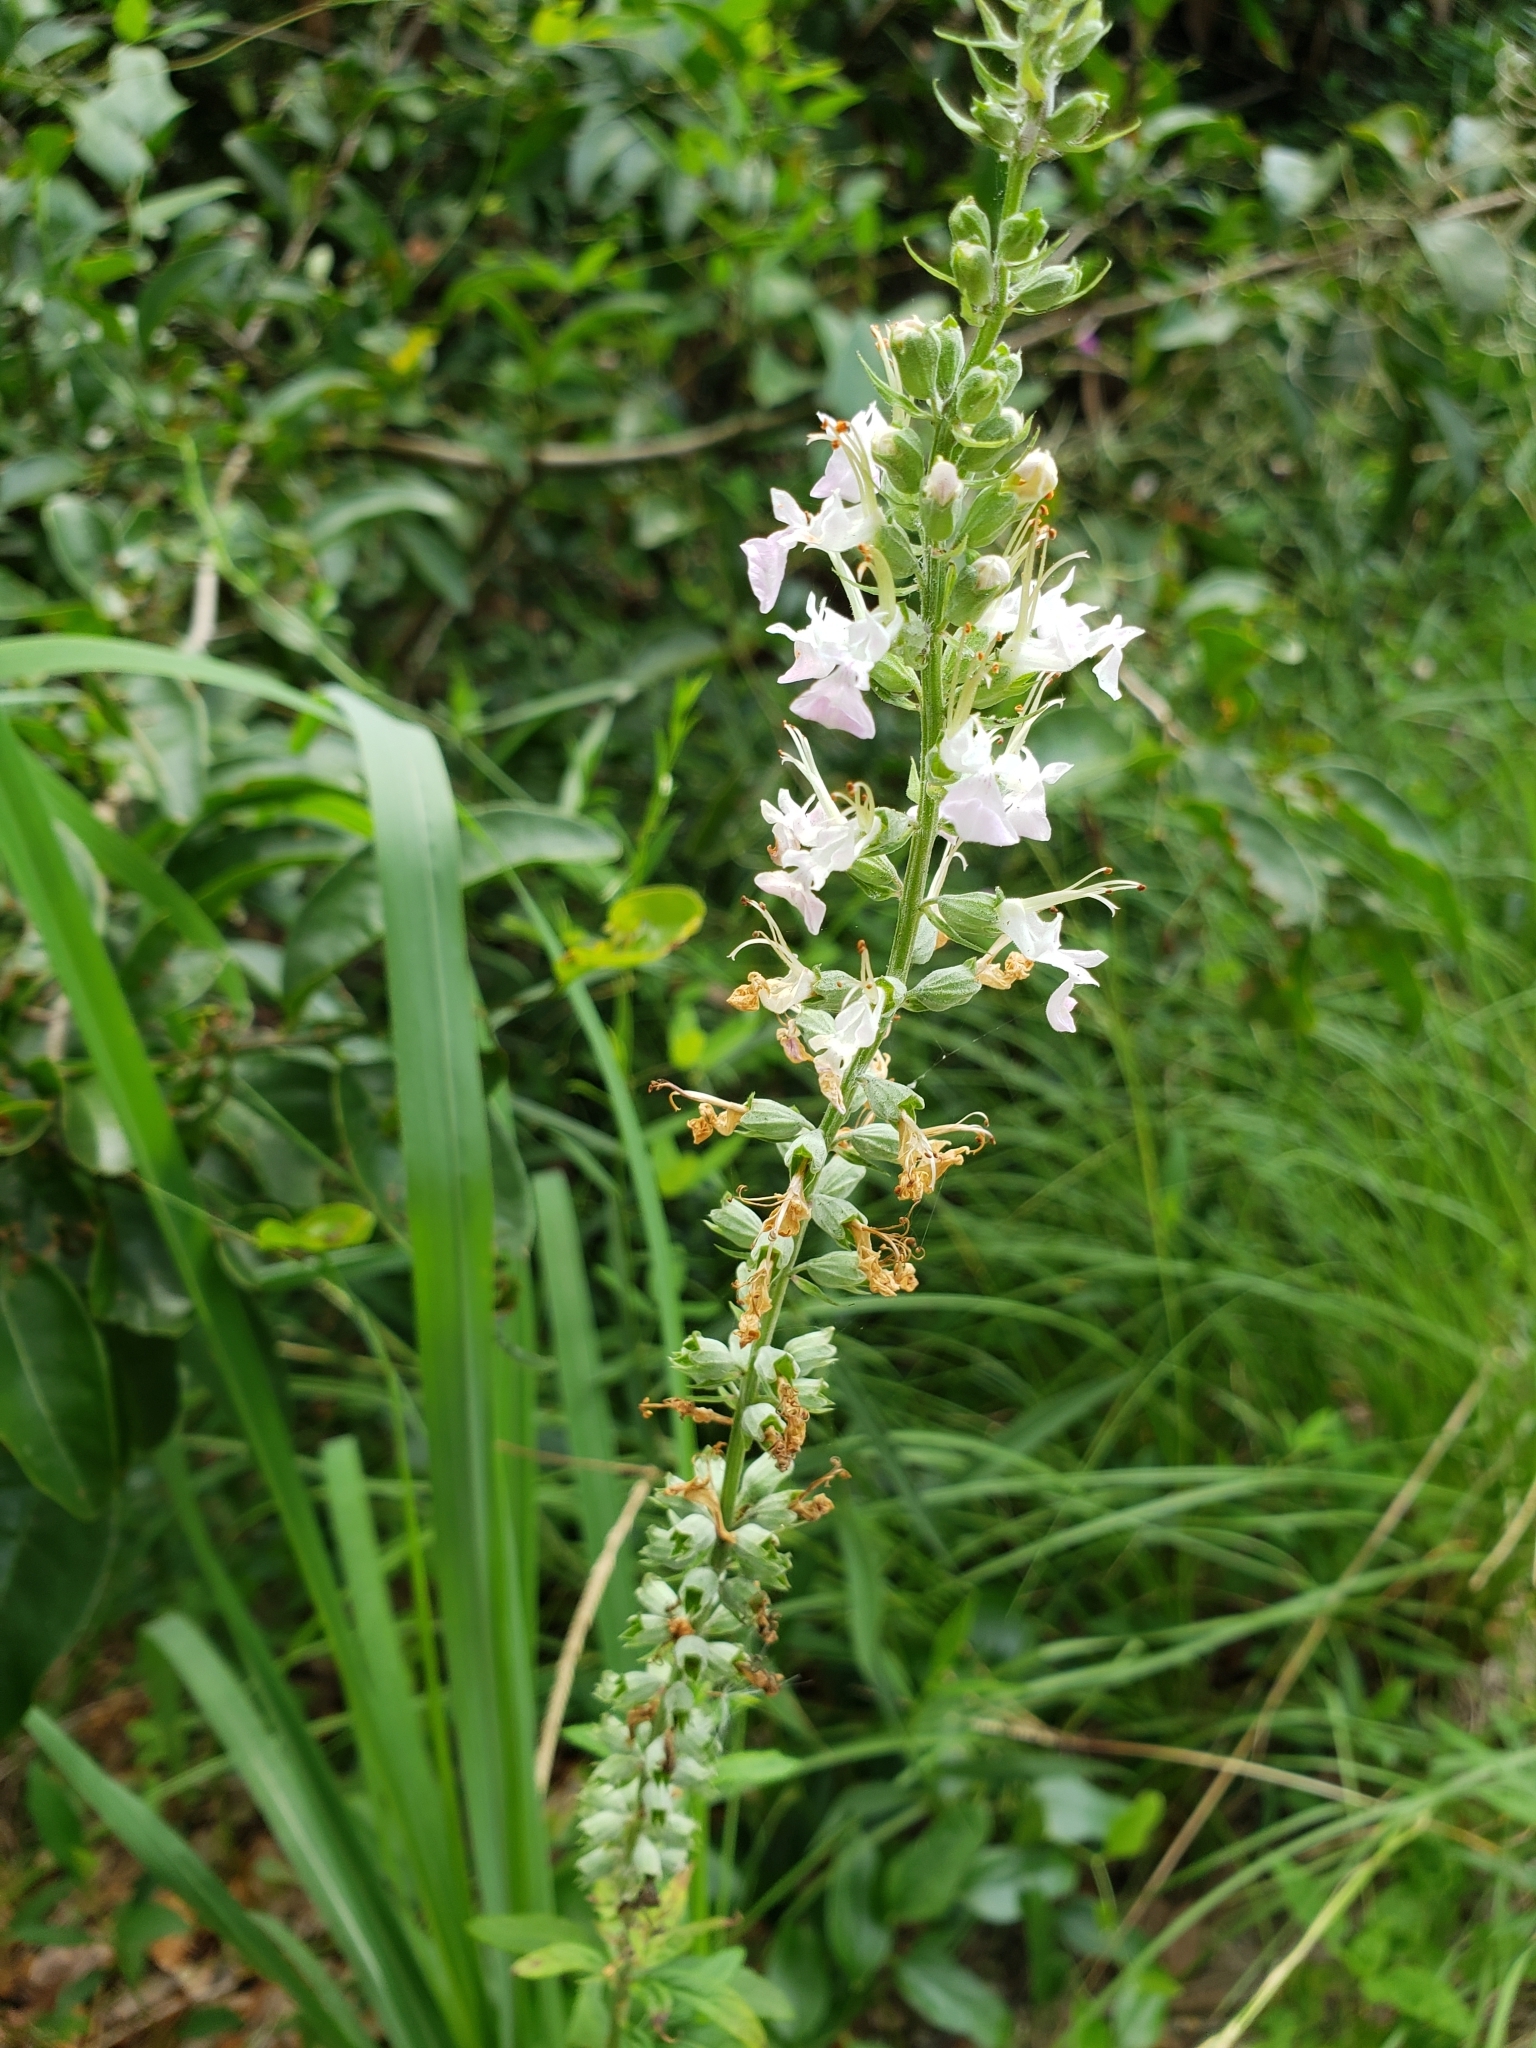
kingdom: Plantae
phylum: Tracheophyta
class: Magnoliopsida
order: Lamiales
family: Lamiaceae
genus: Teucrium
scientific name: Teucrium canadense
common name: American germander
